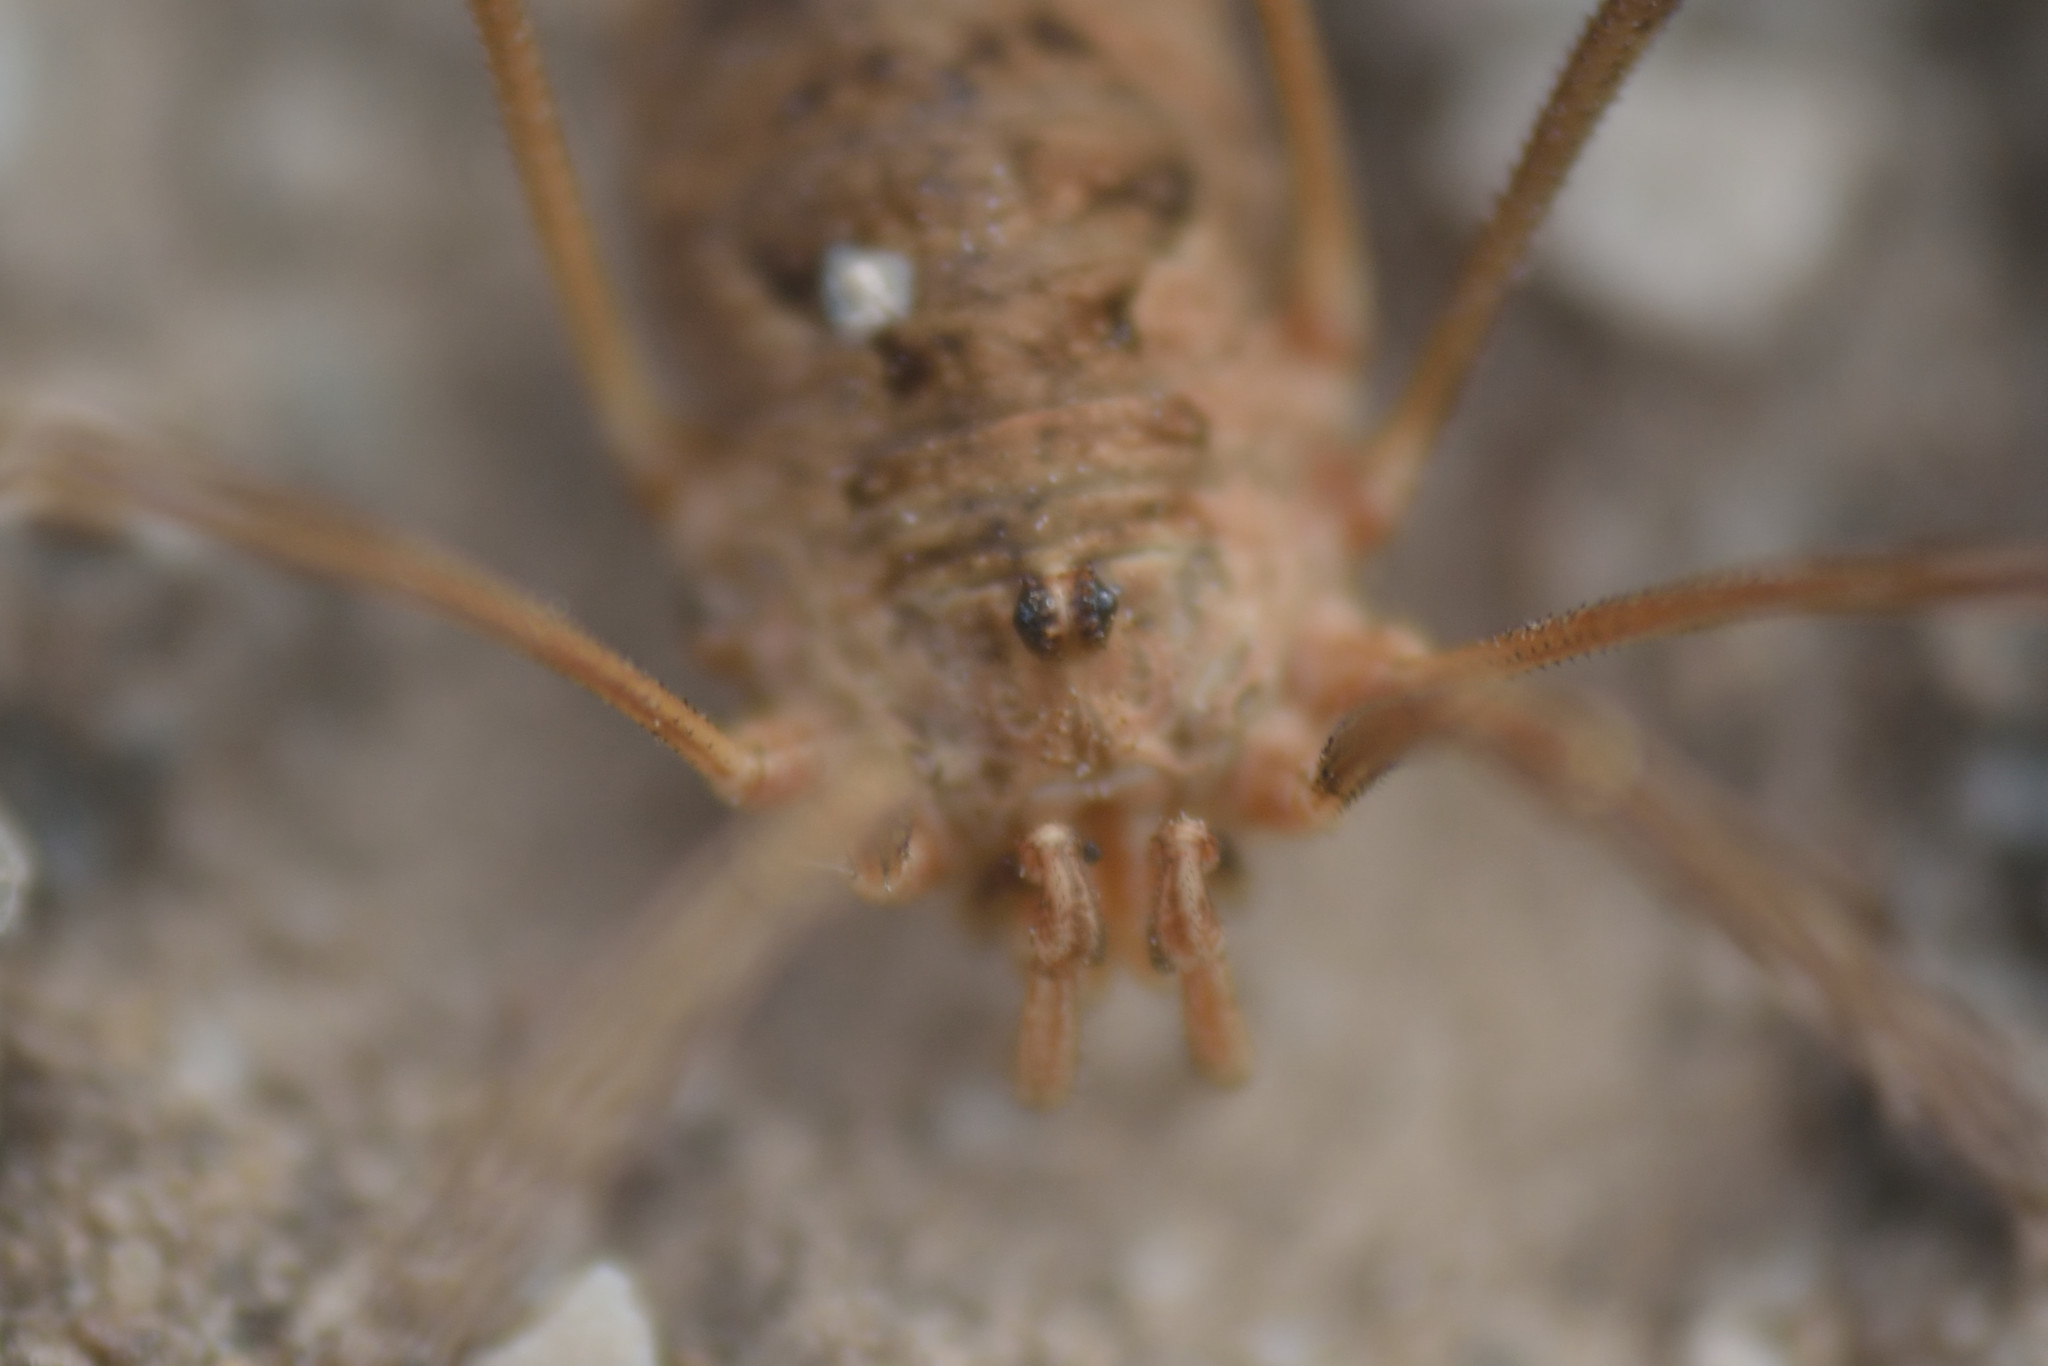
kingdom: Animalia
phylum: Arthropoda
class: Arachnida
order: Opiliones
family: Phalangiidae
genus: Phalangium
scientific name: Phalangium opilio
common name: Daddy longleg
